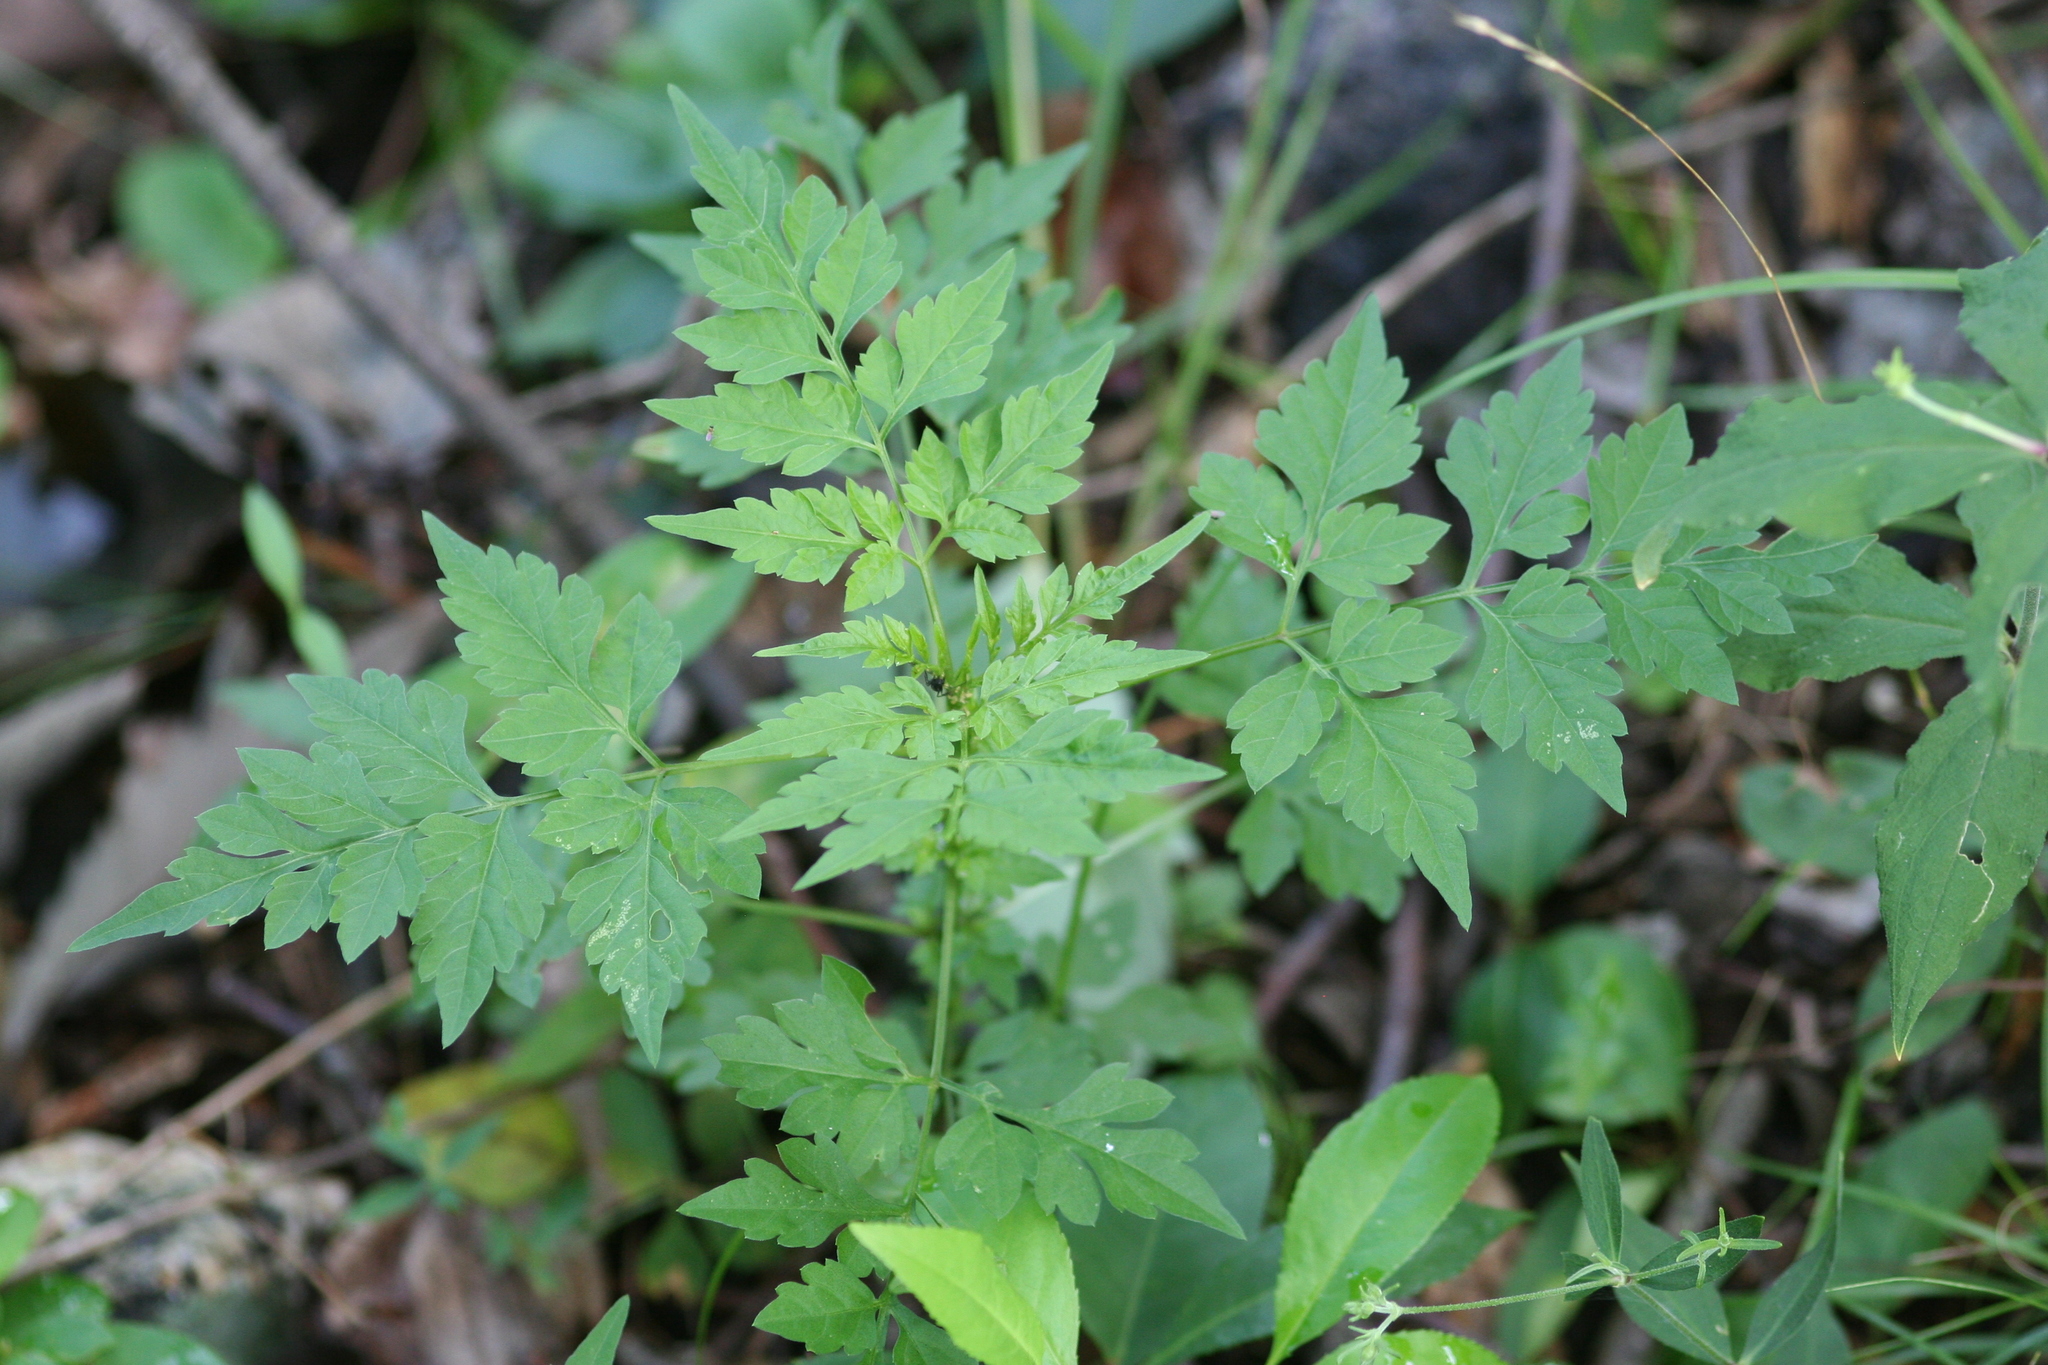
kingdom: Plantae
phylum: Tracheophyta
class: Magnoliopsida
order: Asterales
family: Asteraceae
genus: Bidens
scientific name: Bidens bipinnata
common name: Spanish-needles
